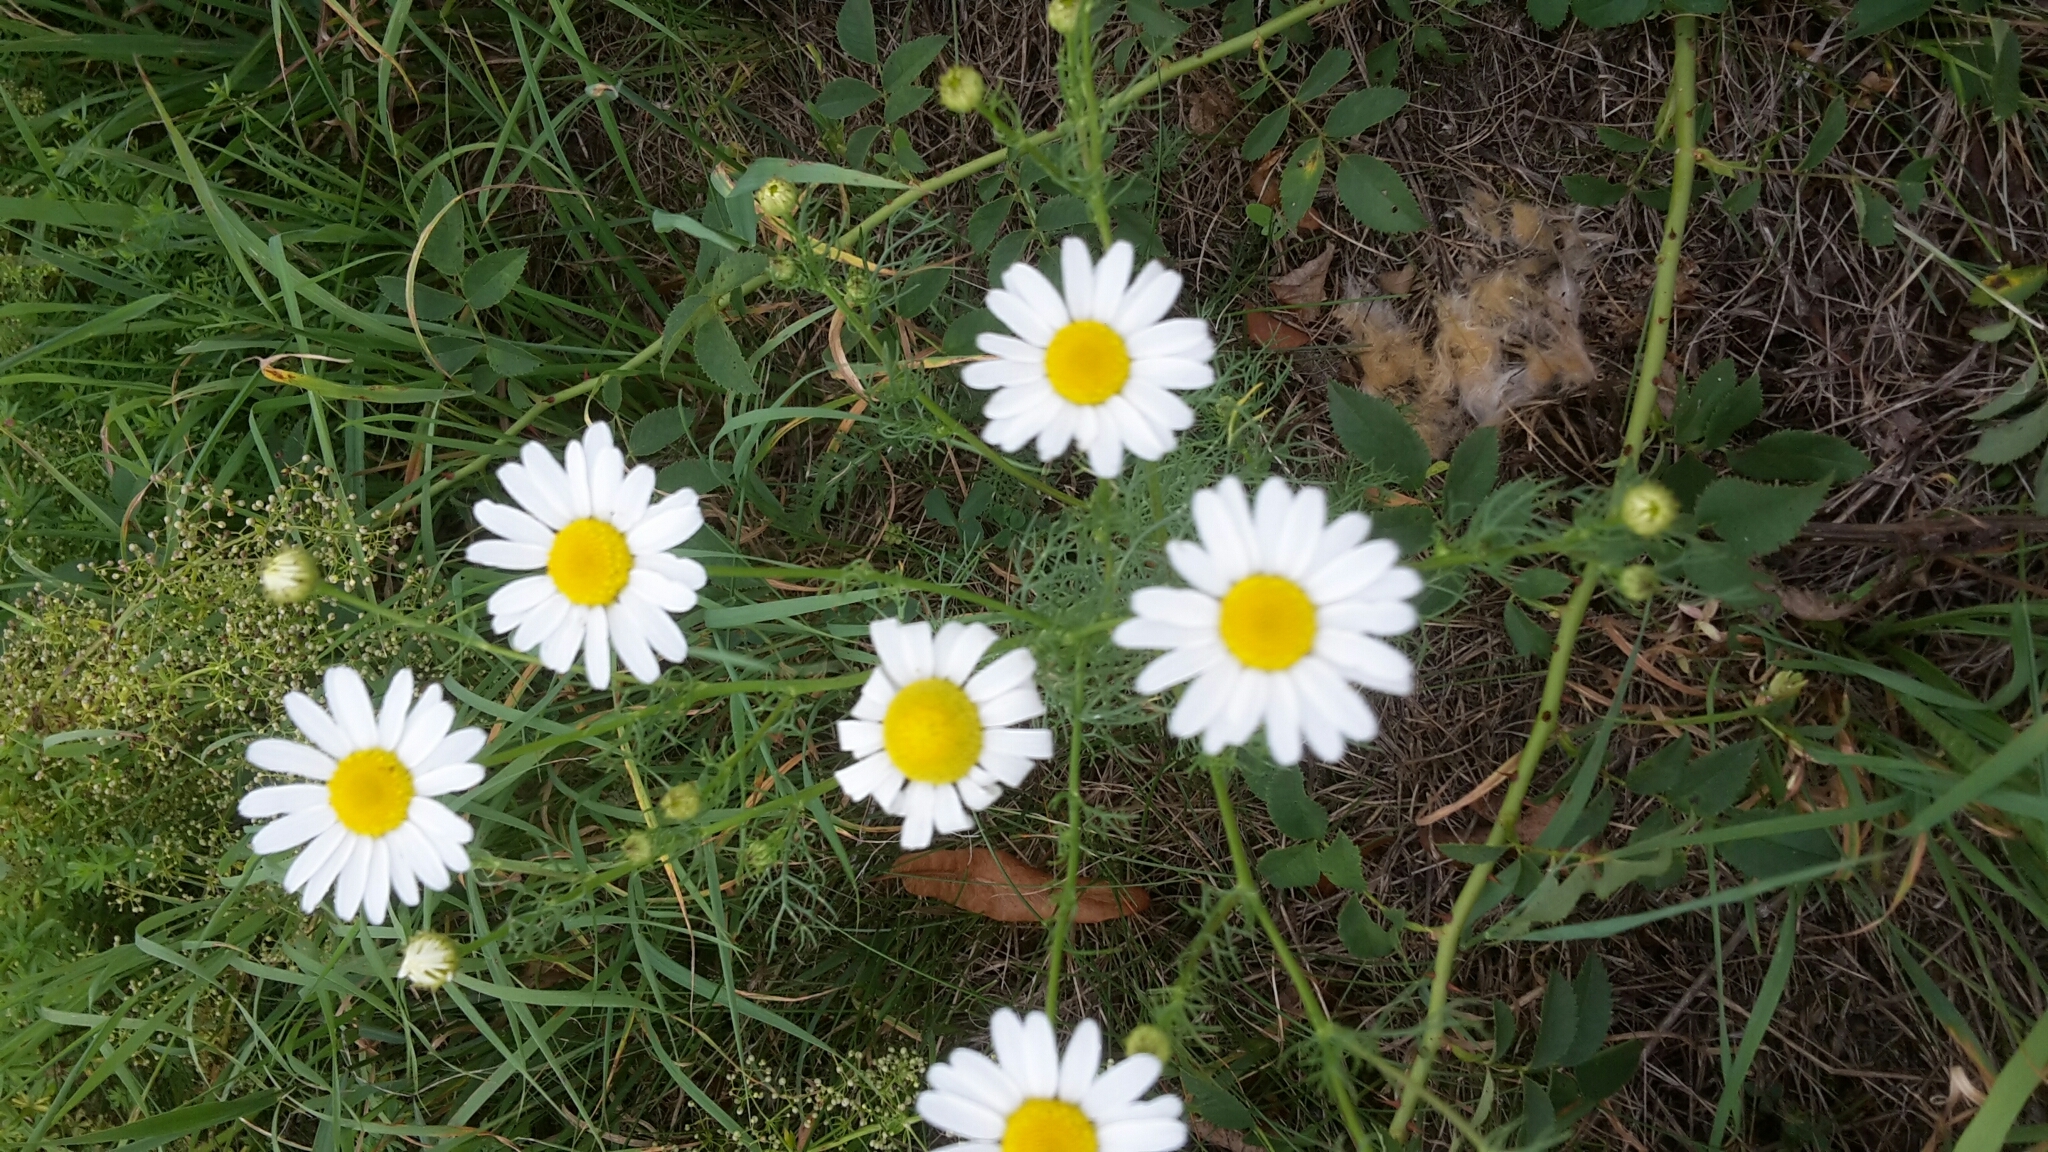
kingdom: Plantae
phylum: Tracheophyta
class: Magnoliopsida
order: Asterales
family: Asteraceae
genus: Tripleurospermum
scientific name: Tripleurospermum inodorum
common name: Scentless mayweed
